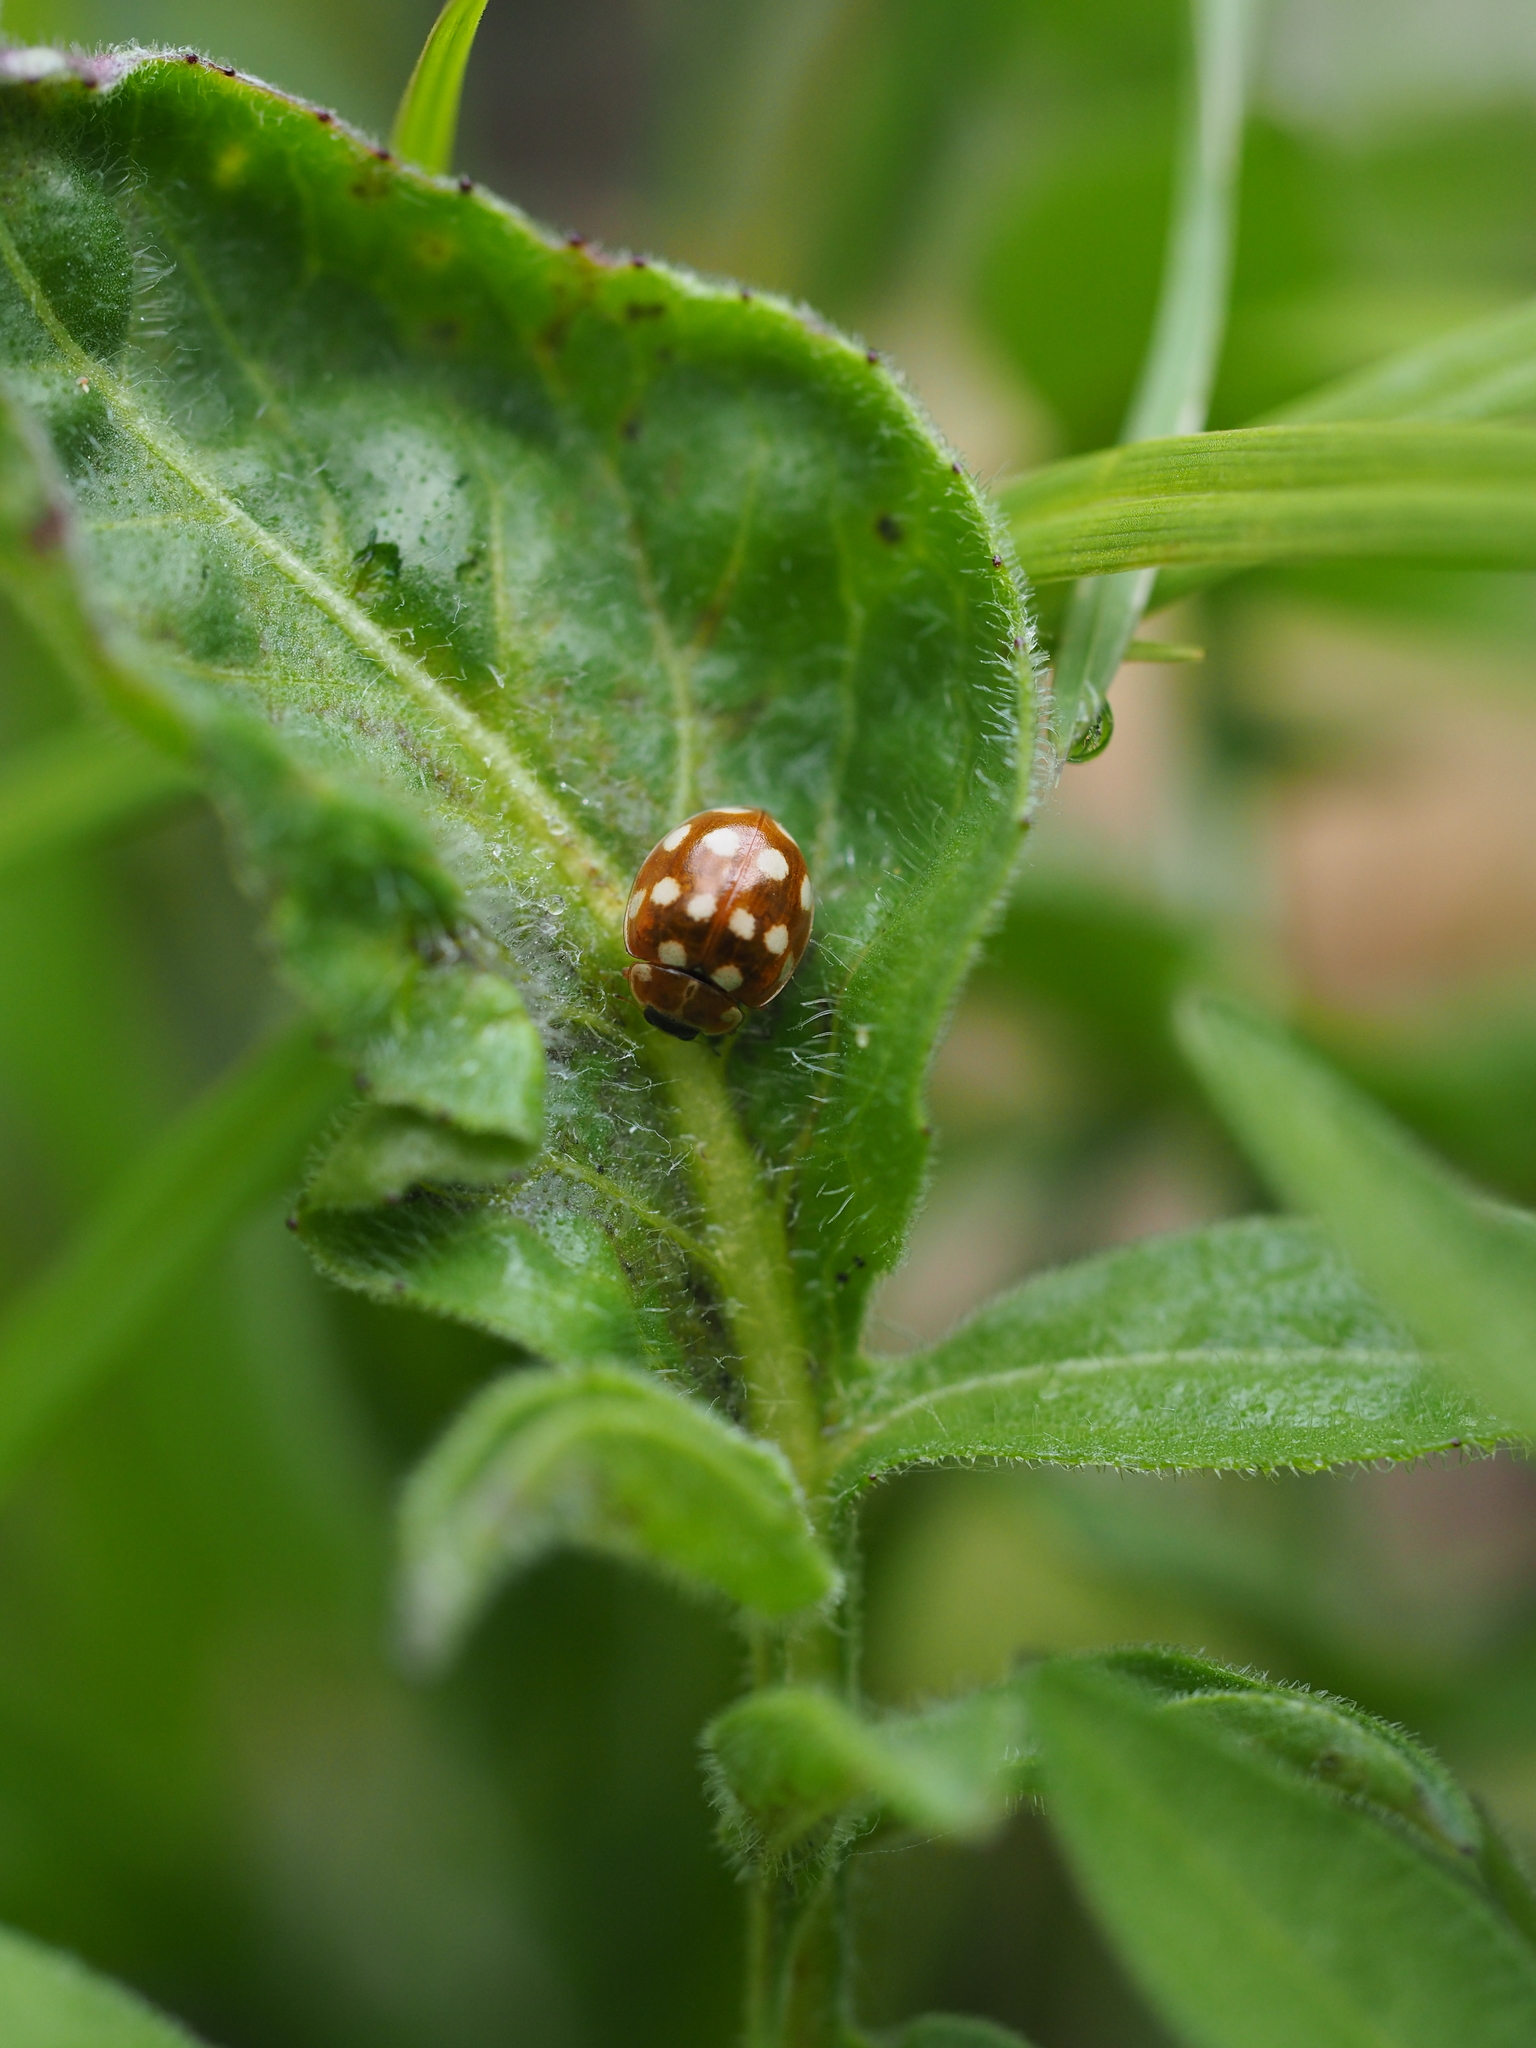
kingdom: Animalia
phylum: Arthropoda
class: Insecta
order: Coleoptera
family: Coccinellidae
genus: Calvia
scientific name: Calvia quatuordecimguttata
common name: Cream-spot ladybird
